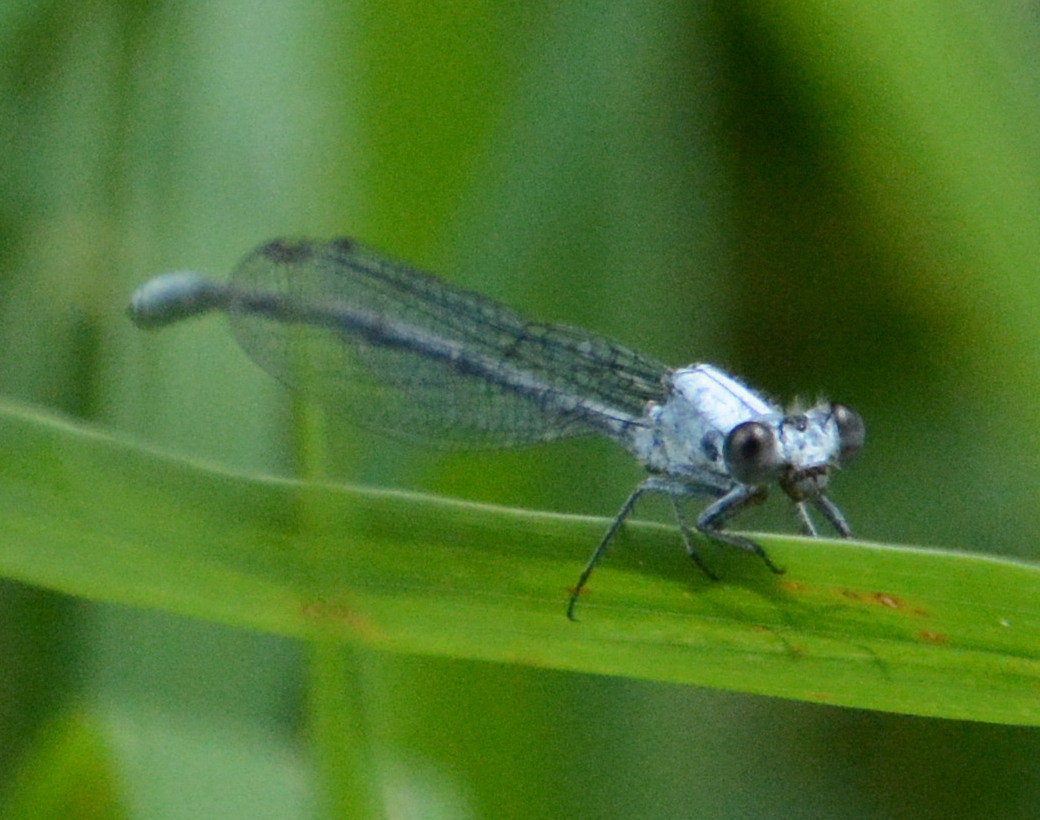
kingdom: Animalia
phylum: Arthropoda
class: Insecta
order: Odonata
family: Coenagrionidae
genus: Argia
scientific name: Argia moesta
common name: Powdered dancer
